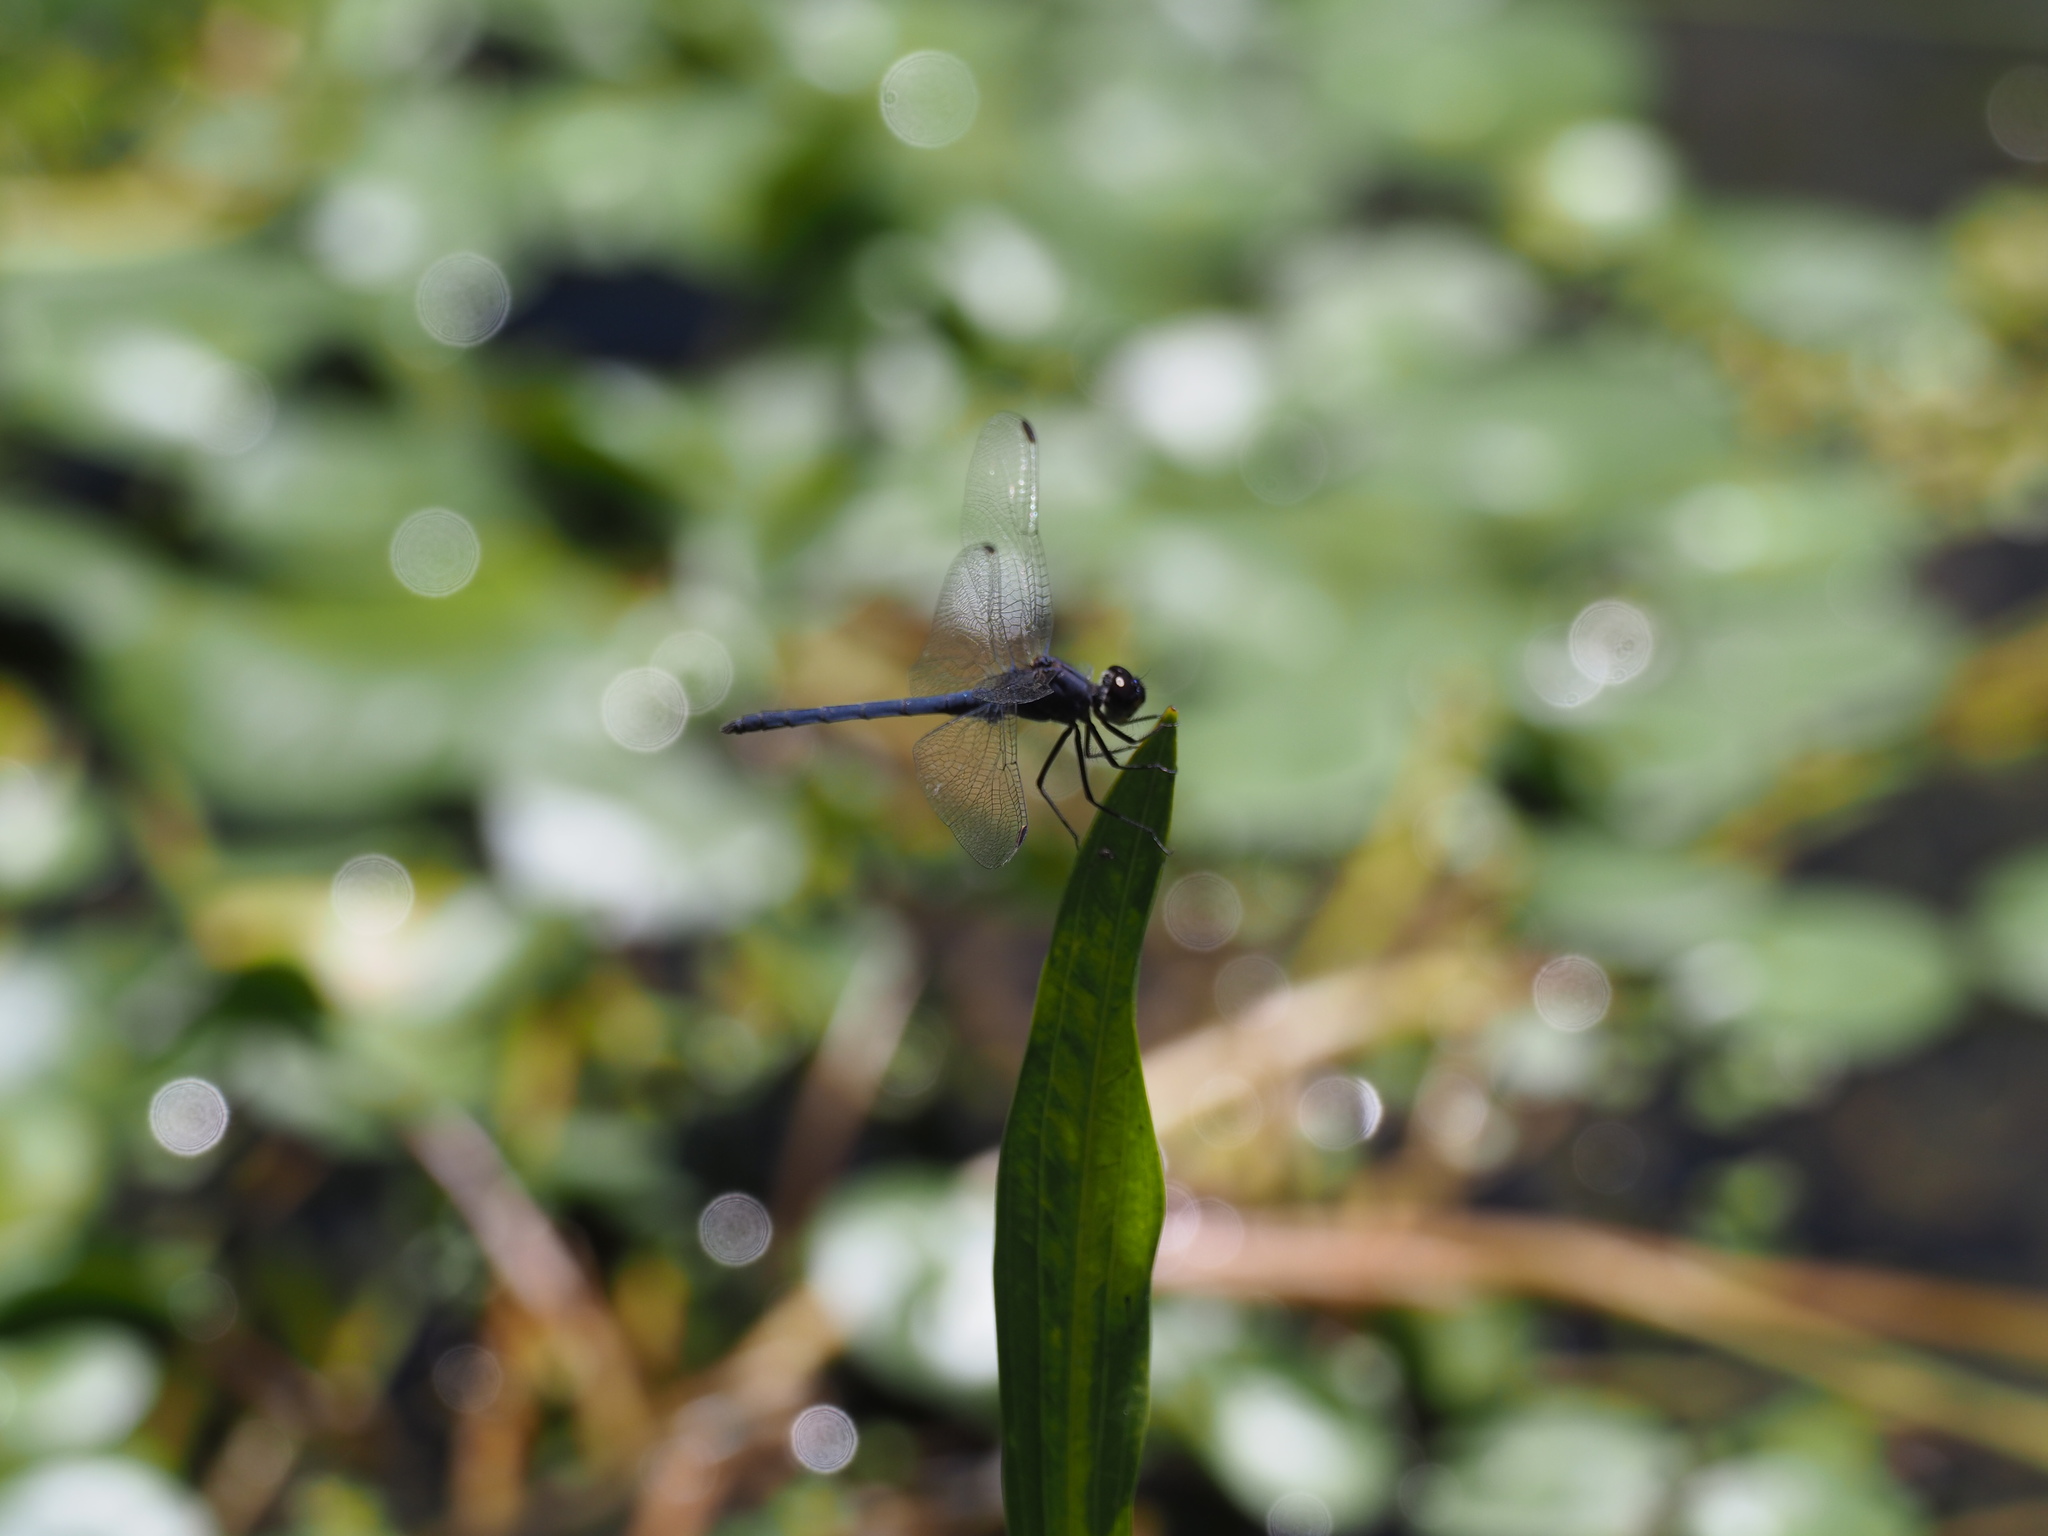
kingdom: Animalia
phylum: Arthropoda
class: Insecta
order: Odonata
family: Libellulidae
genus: Trithemis
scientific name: Trithemis furva
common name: Dark dropwing
